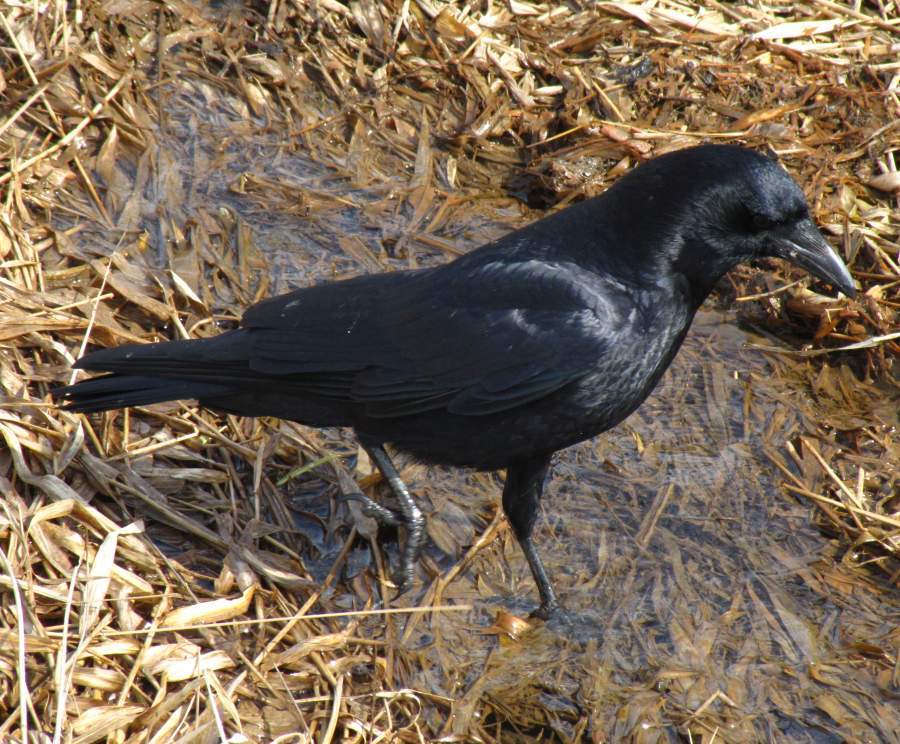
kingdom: Animalia
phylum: Chordata
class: Aves
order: Passeriformes
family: Corvidae
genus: Corvus
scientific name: Corvus brachyrhynchos
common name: American crow
